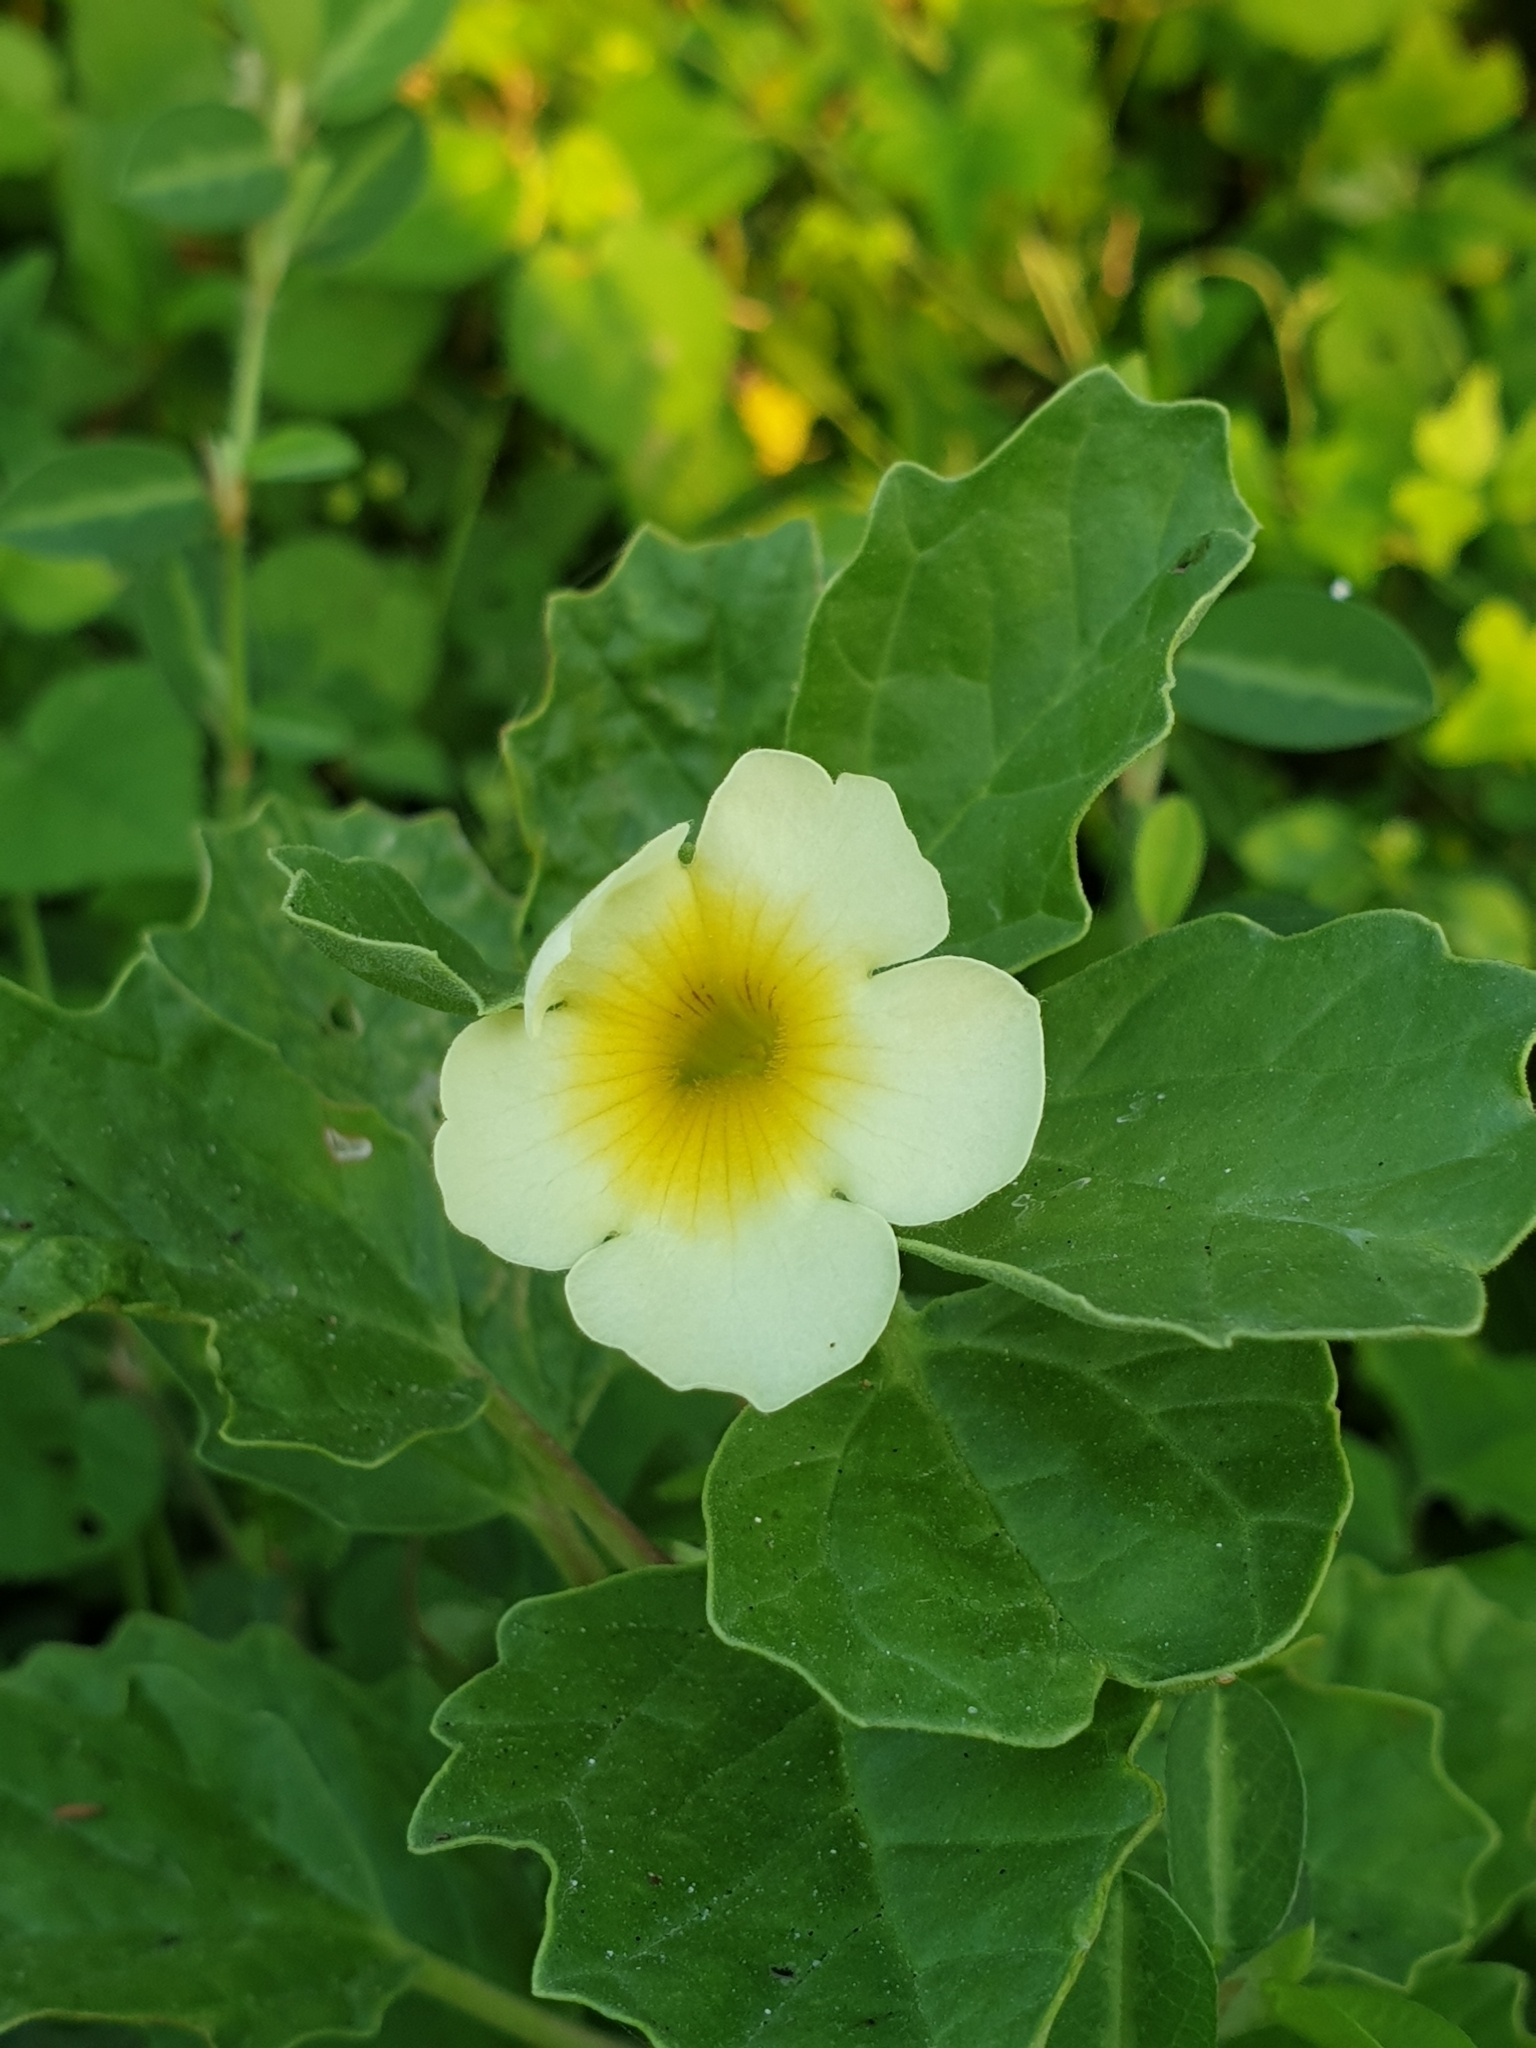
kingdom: Plantae
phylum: Tracheophyta
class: Magnoliopsida
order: Lamiales
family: Pedaliaceae
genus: Pedalium
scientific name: Pedalium murex
